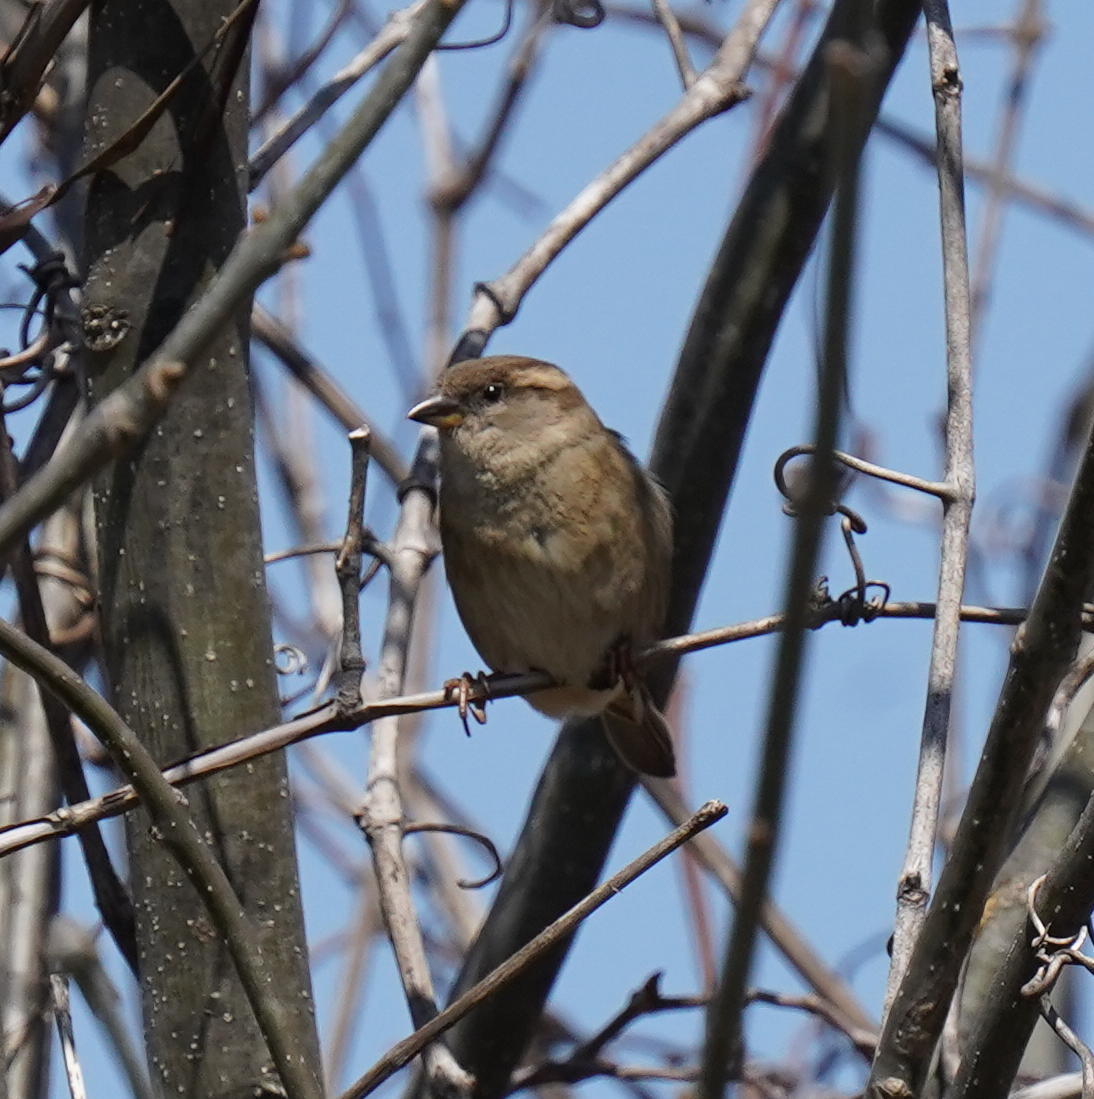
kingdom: Animalia
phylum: Chordata
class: Aves
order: Passeriformes
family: Passeridae
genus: Passer
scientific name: Passer domesticus
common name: House sparrow
